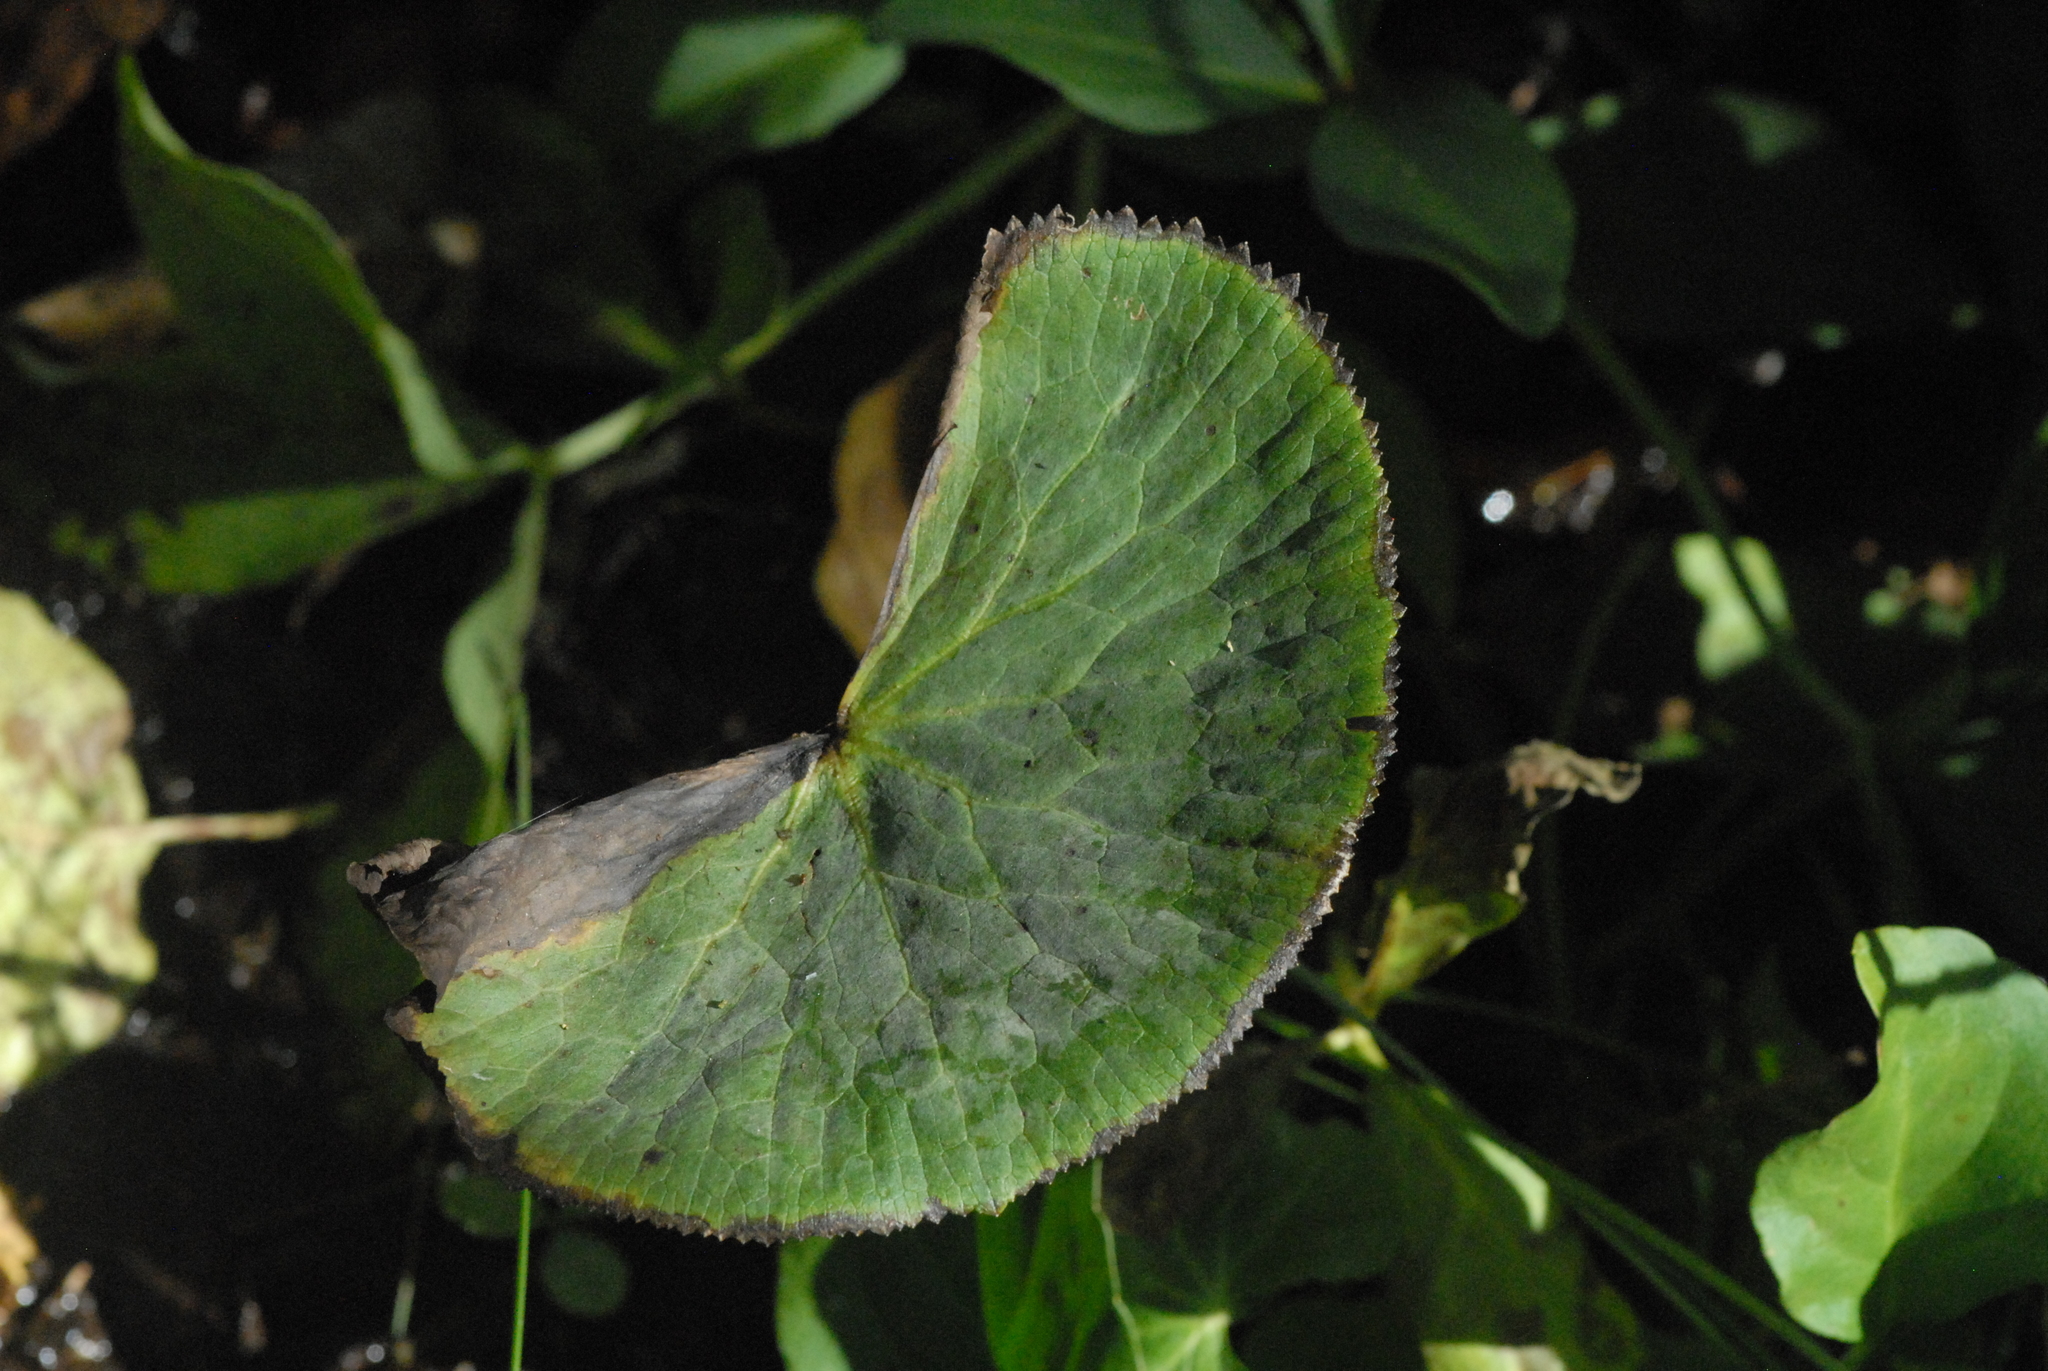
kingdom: Plantae
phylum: Tracheophyta
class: Magnoliopsida
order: Ranunculales
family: Ranunculaceae
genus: Caltha
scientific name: Caltha palustris
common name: Marsh marigold
